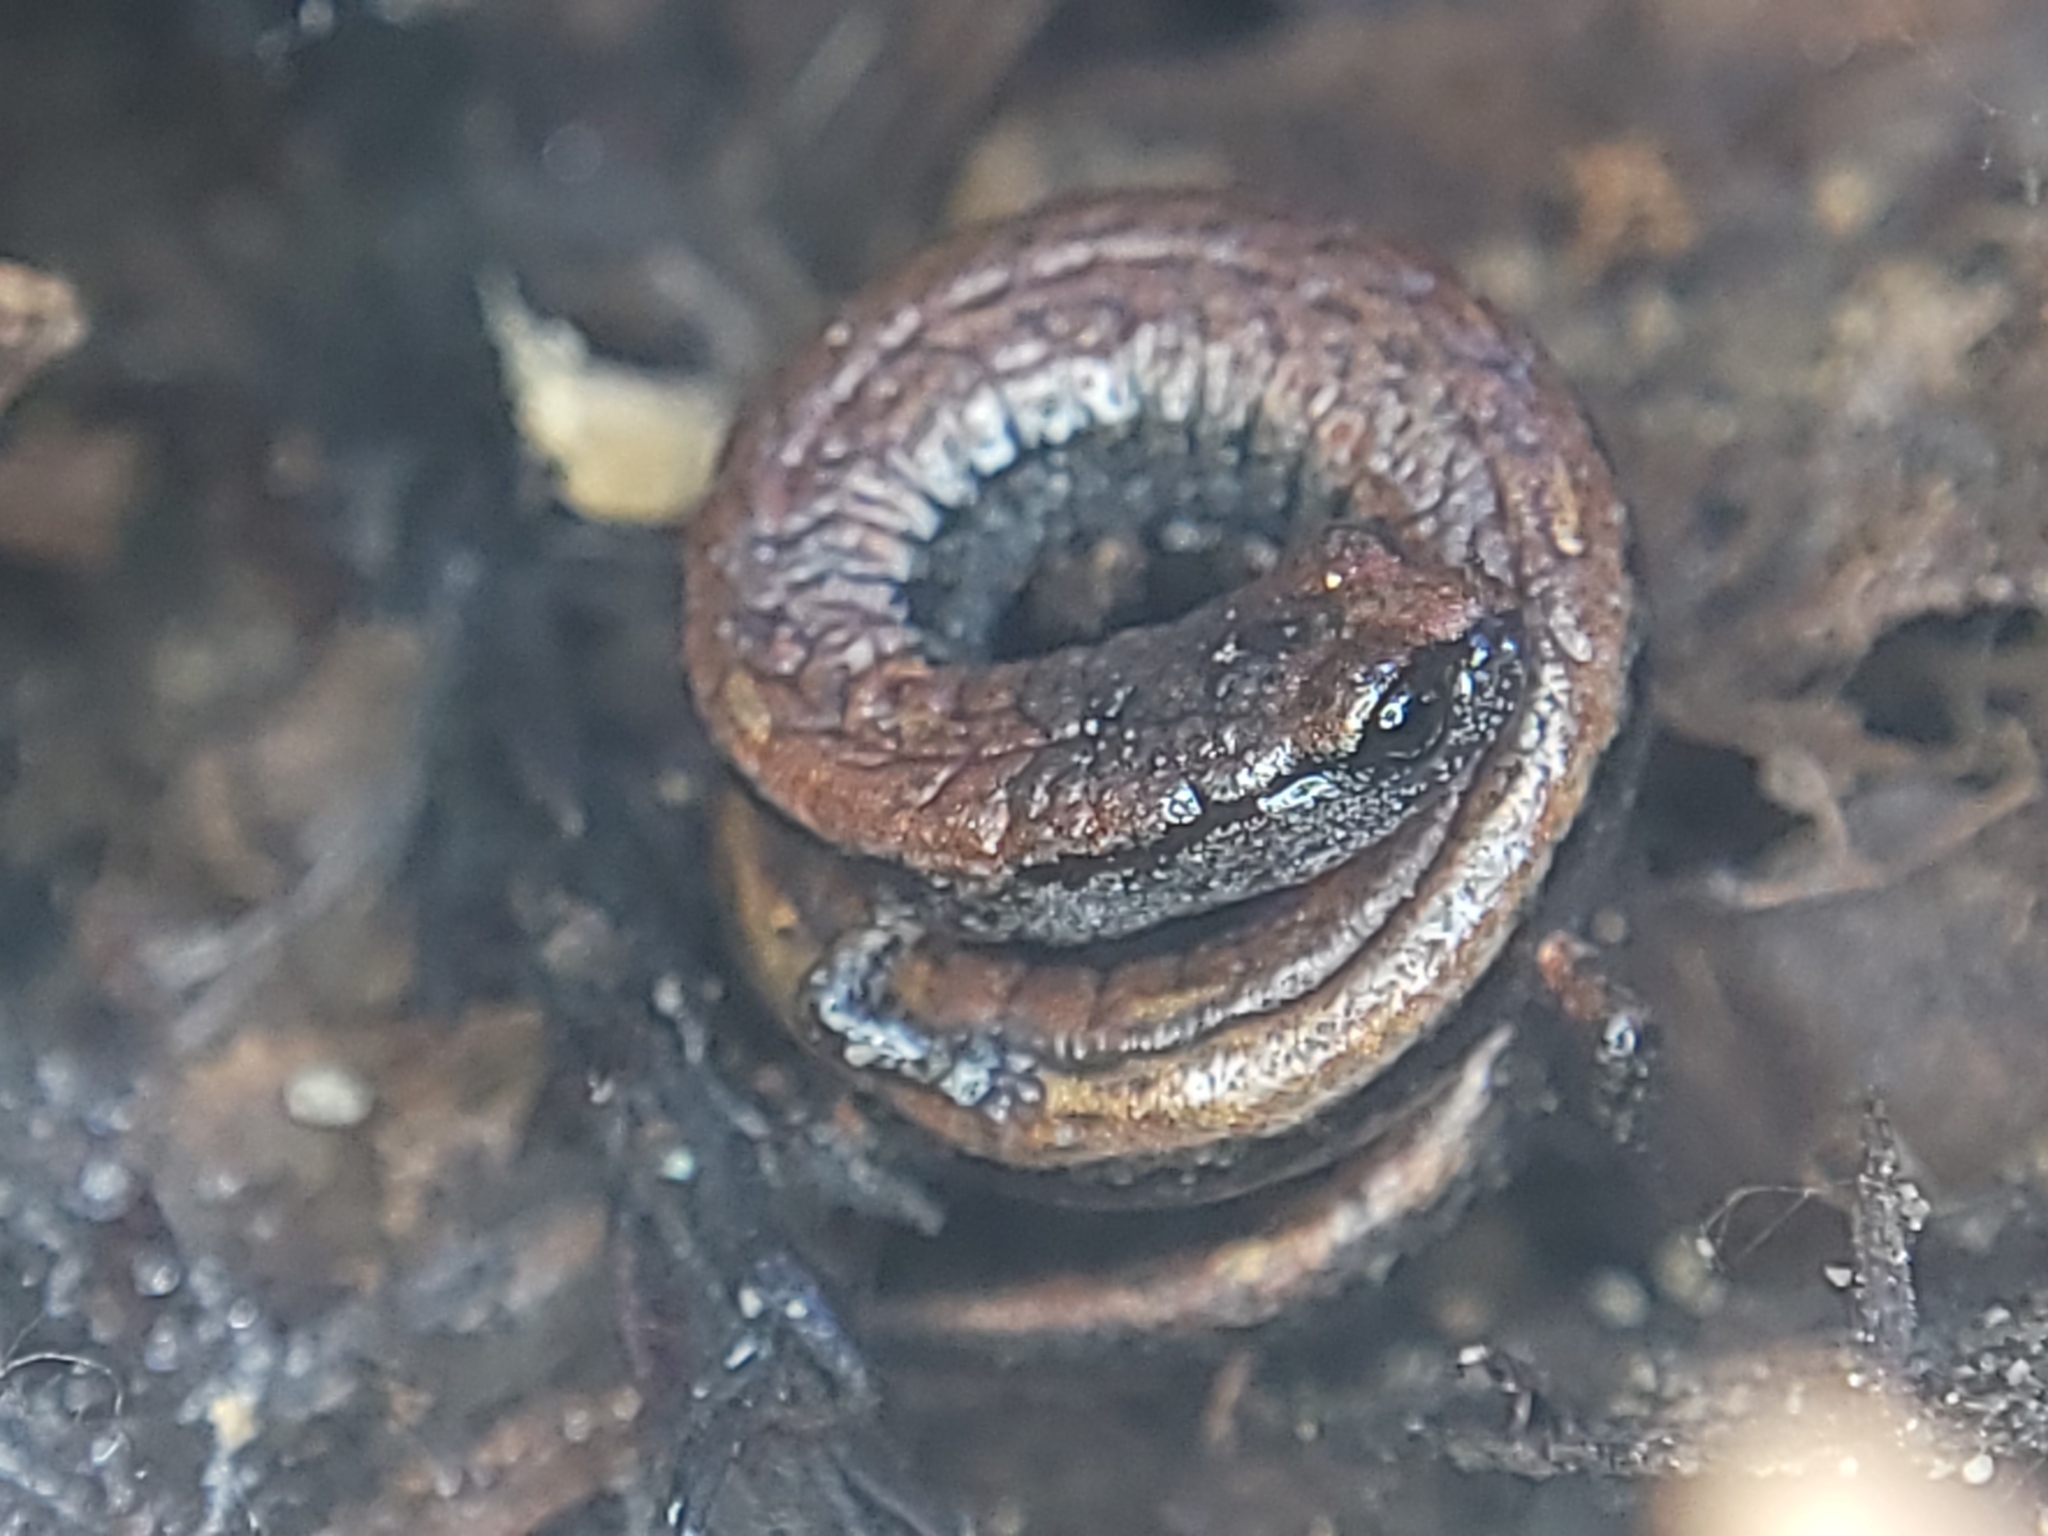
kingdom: Animalia
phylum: Chordata
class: Amphibia
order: Caudata
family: Plethodontidae
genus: Batrachoseps
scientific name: Batrachoseps attenuatus
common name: California slender salamander
